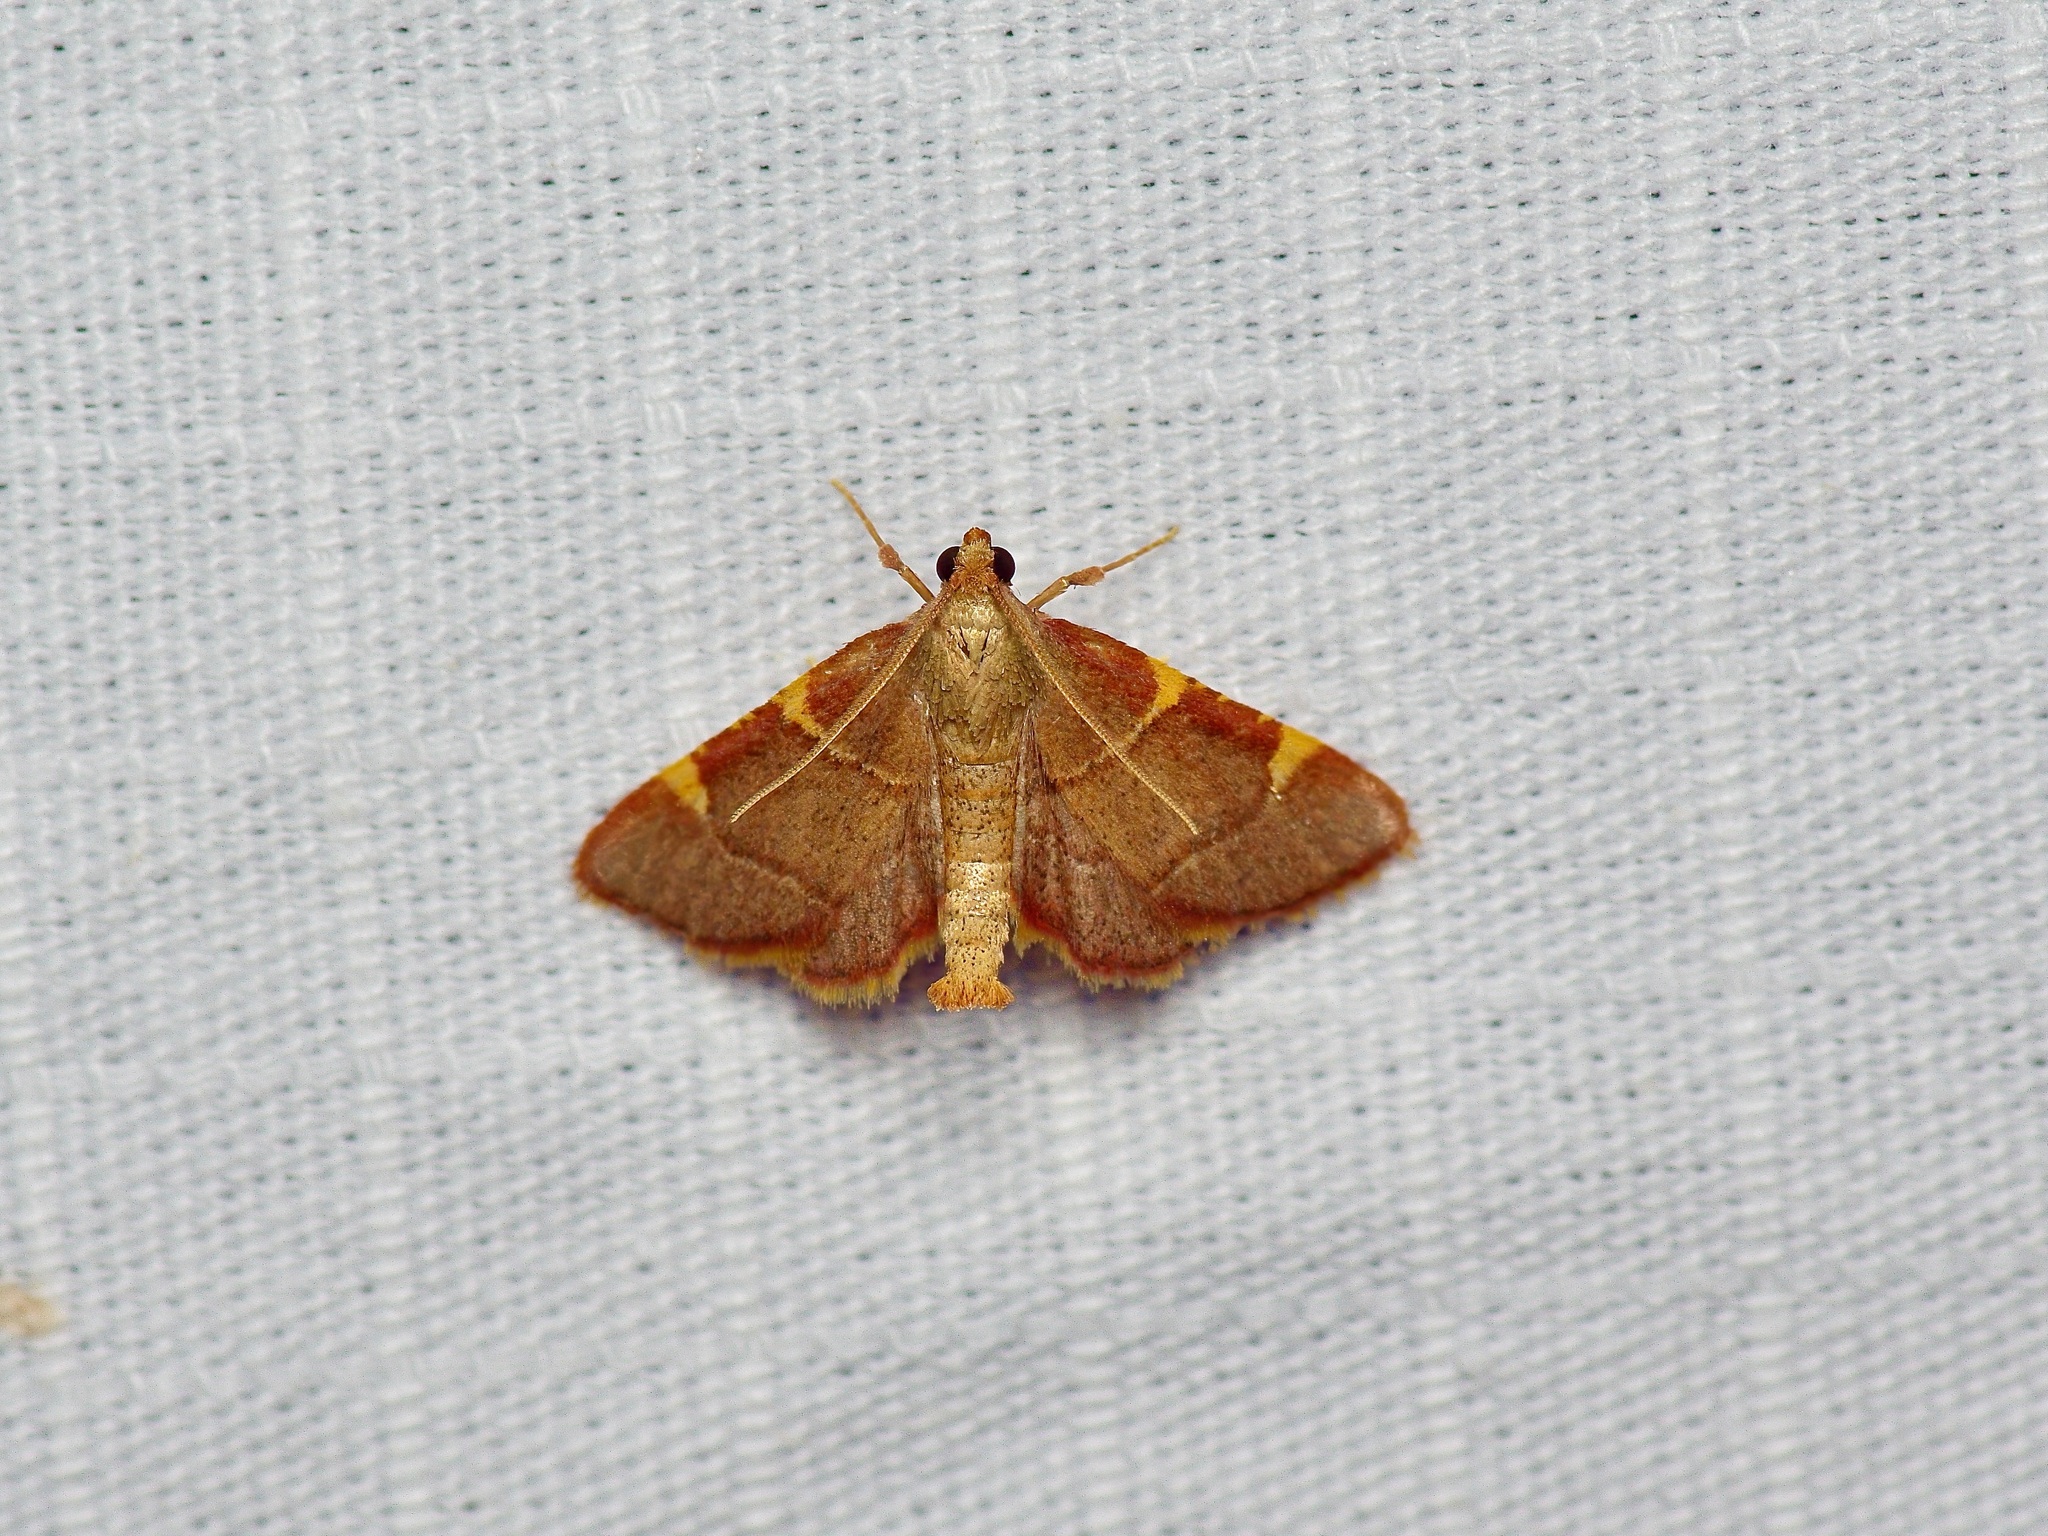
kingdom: Animalia
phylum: Arthropoda
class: Insecta
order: Lepidoptera
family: Pyralidae
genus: Hypsopygia
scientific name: Hypsopygia olinalis
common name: Yellow-fringed dolichomia moth
